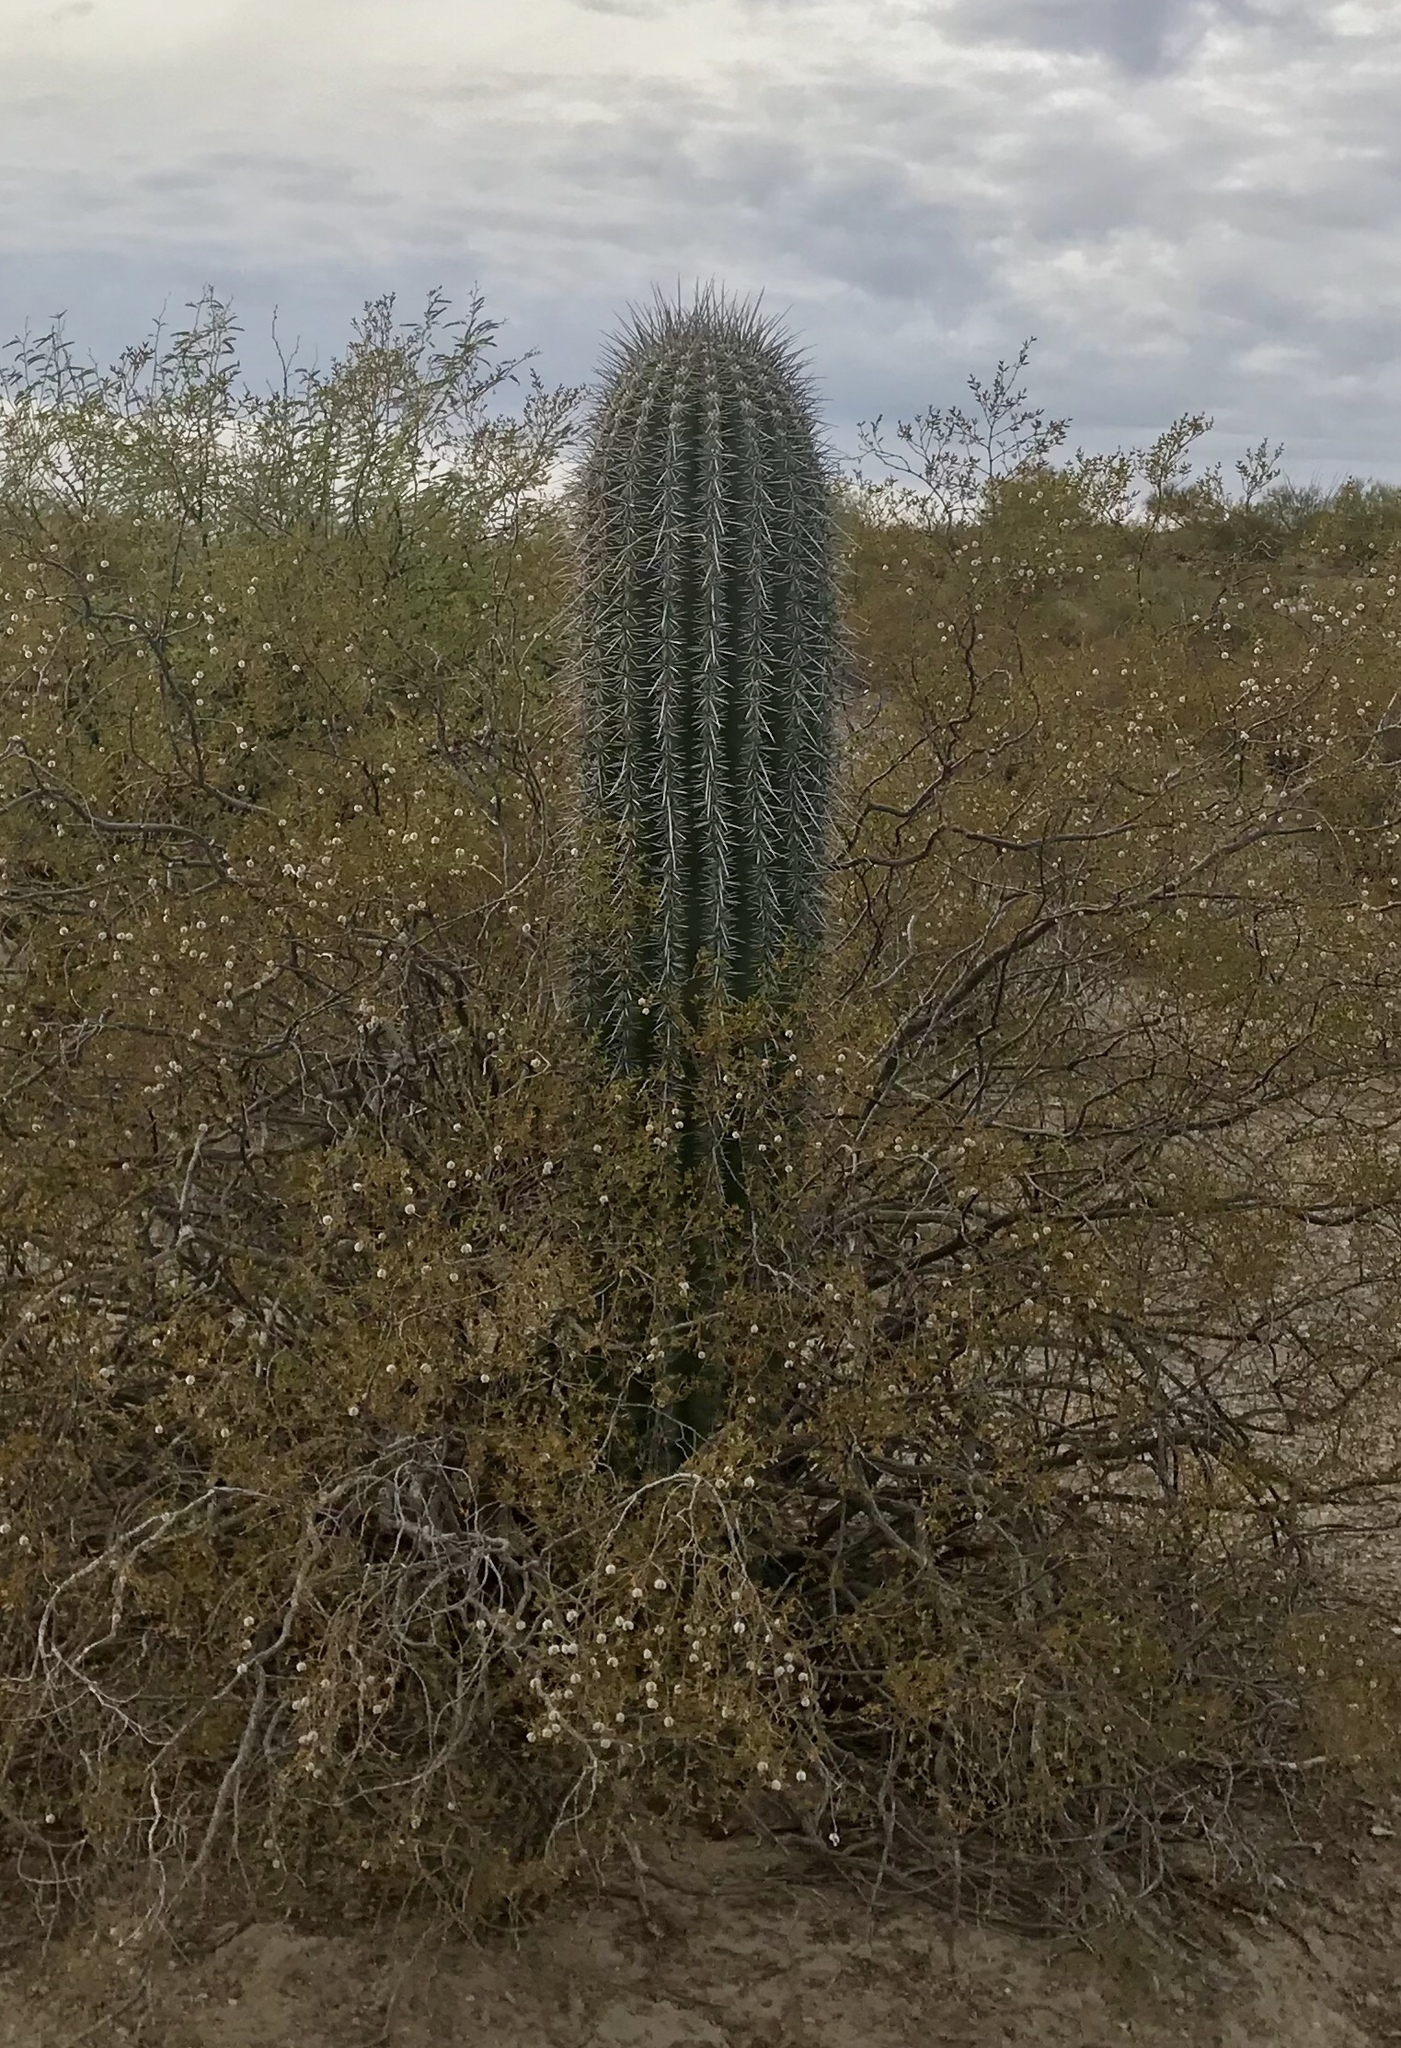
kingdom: Plantae
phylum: Tracheophyta
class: Magnoliopsida
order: Caryophyllales
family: Cactaceae
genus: Carnegiea
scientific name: Carnegiea gigantea
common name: Saguaro
